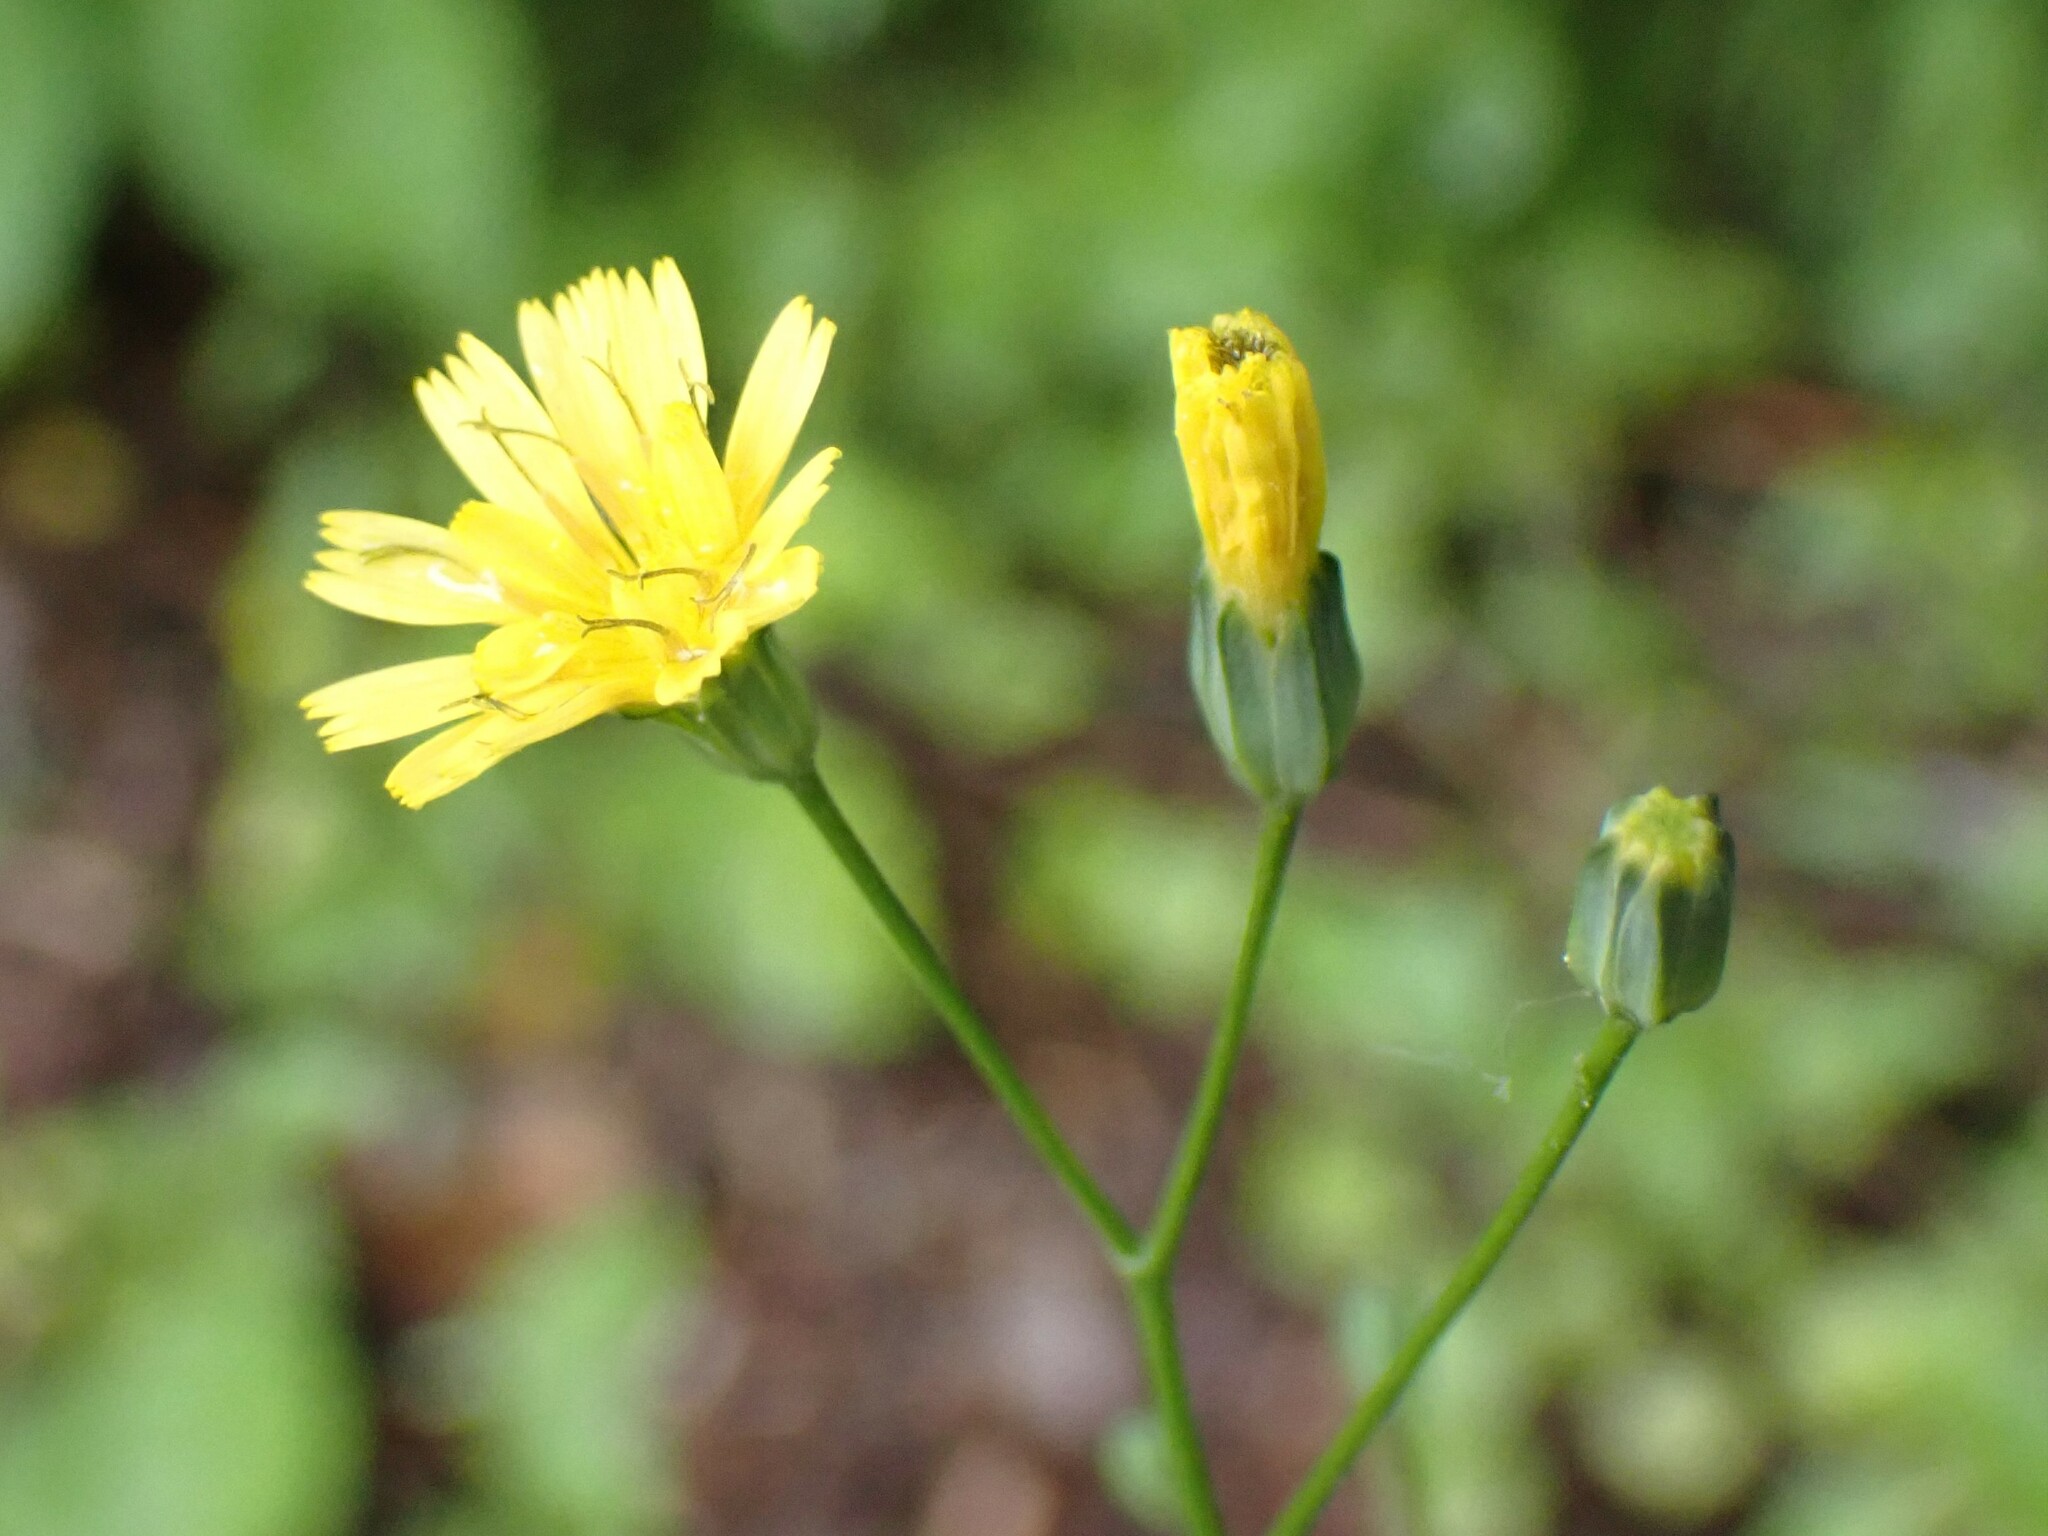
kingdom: Plantae
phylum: Tracheophyta
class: Magnoliopsida
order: Asterales
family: Asteraceae
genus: Lapsana
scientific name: Lapsana communis
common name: Nipplewort
